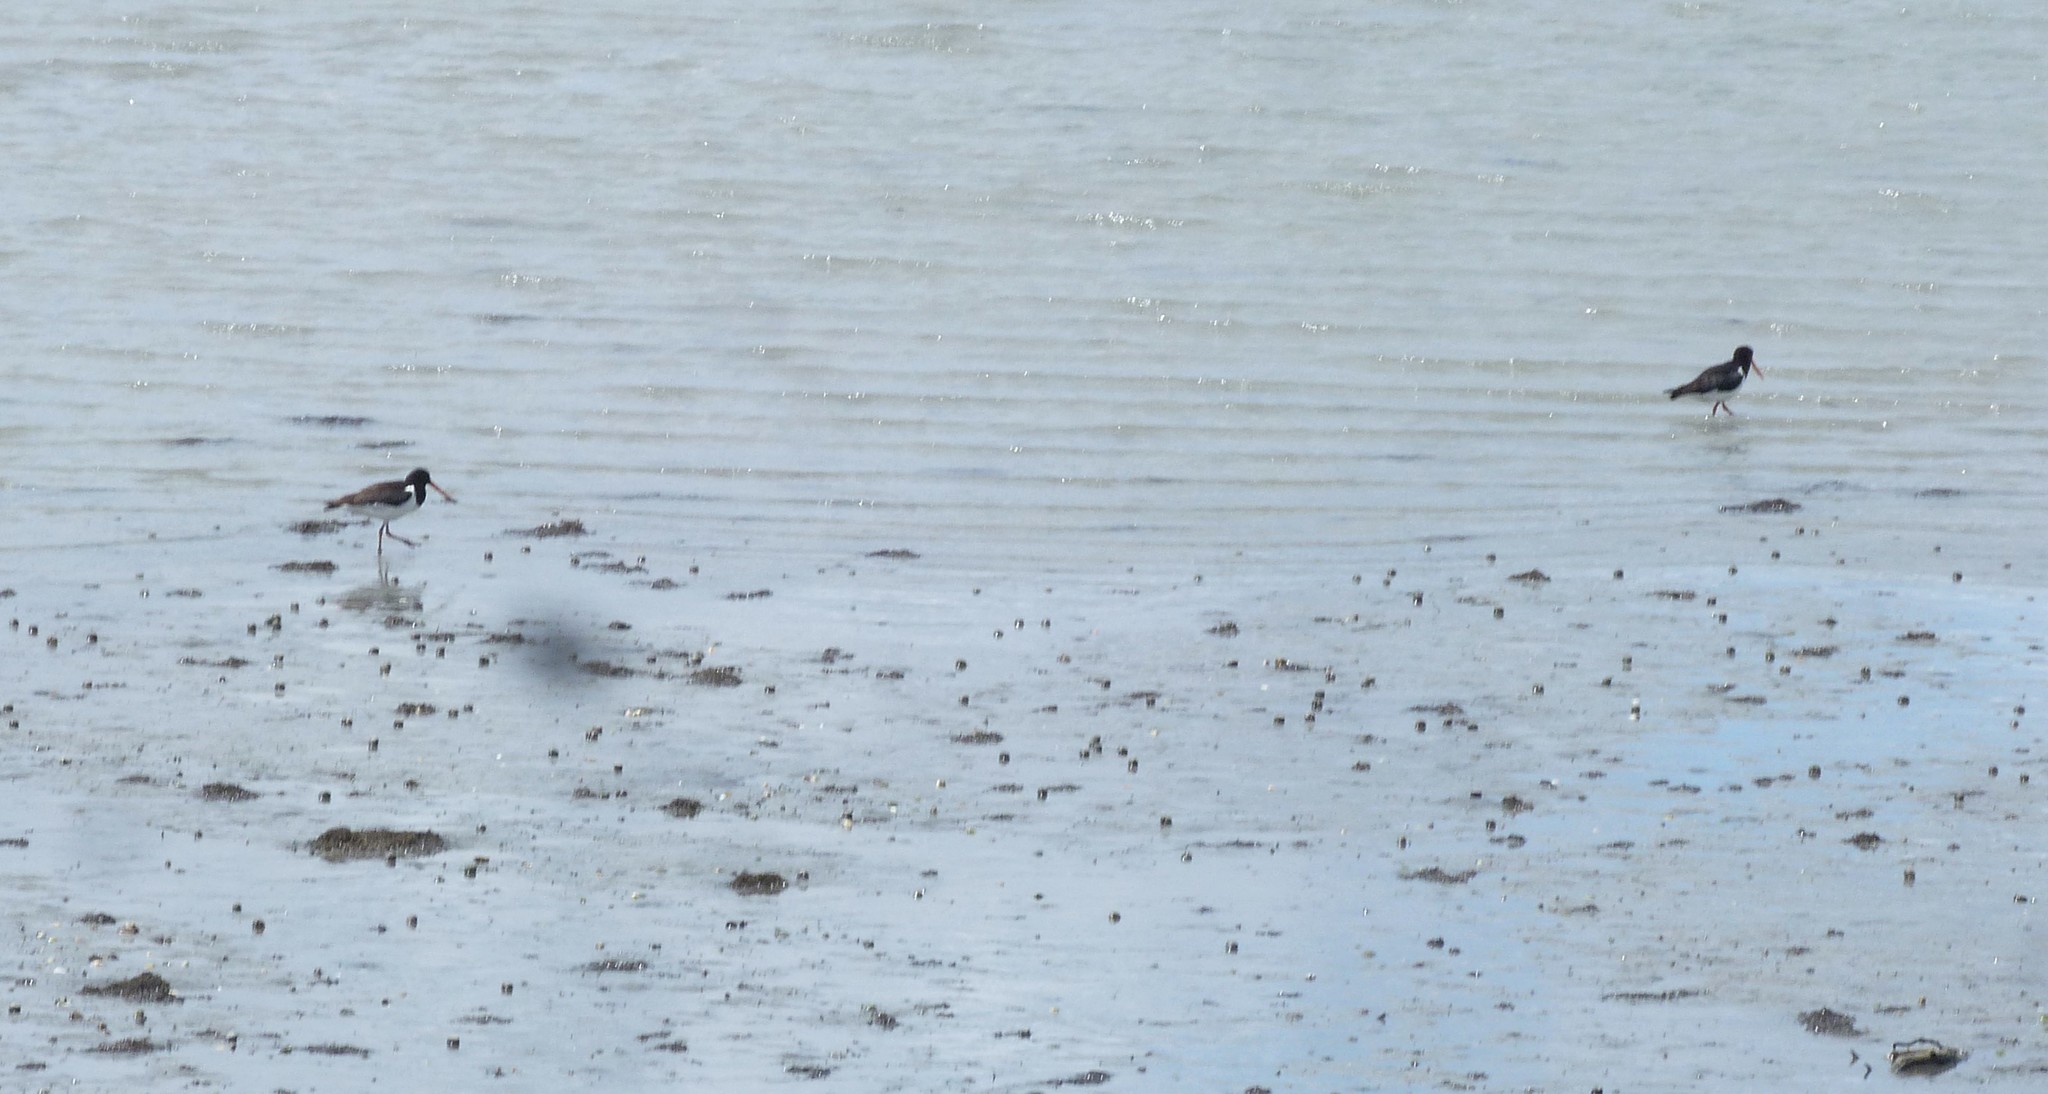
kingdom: Animalia
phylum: Chordata
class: Aves
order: Charadriiformes
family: Haematopodidae
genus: Haematopus
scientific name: Haematopus finschi
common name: South island oystercatcher
